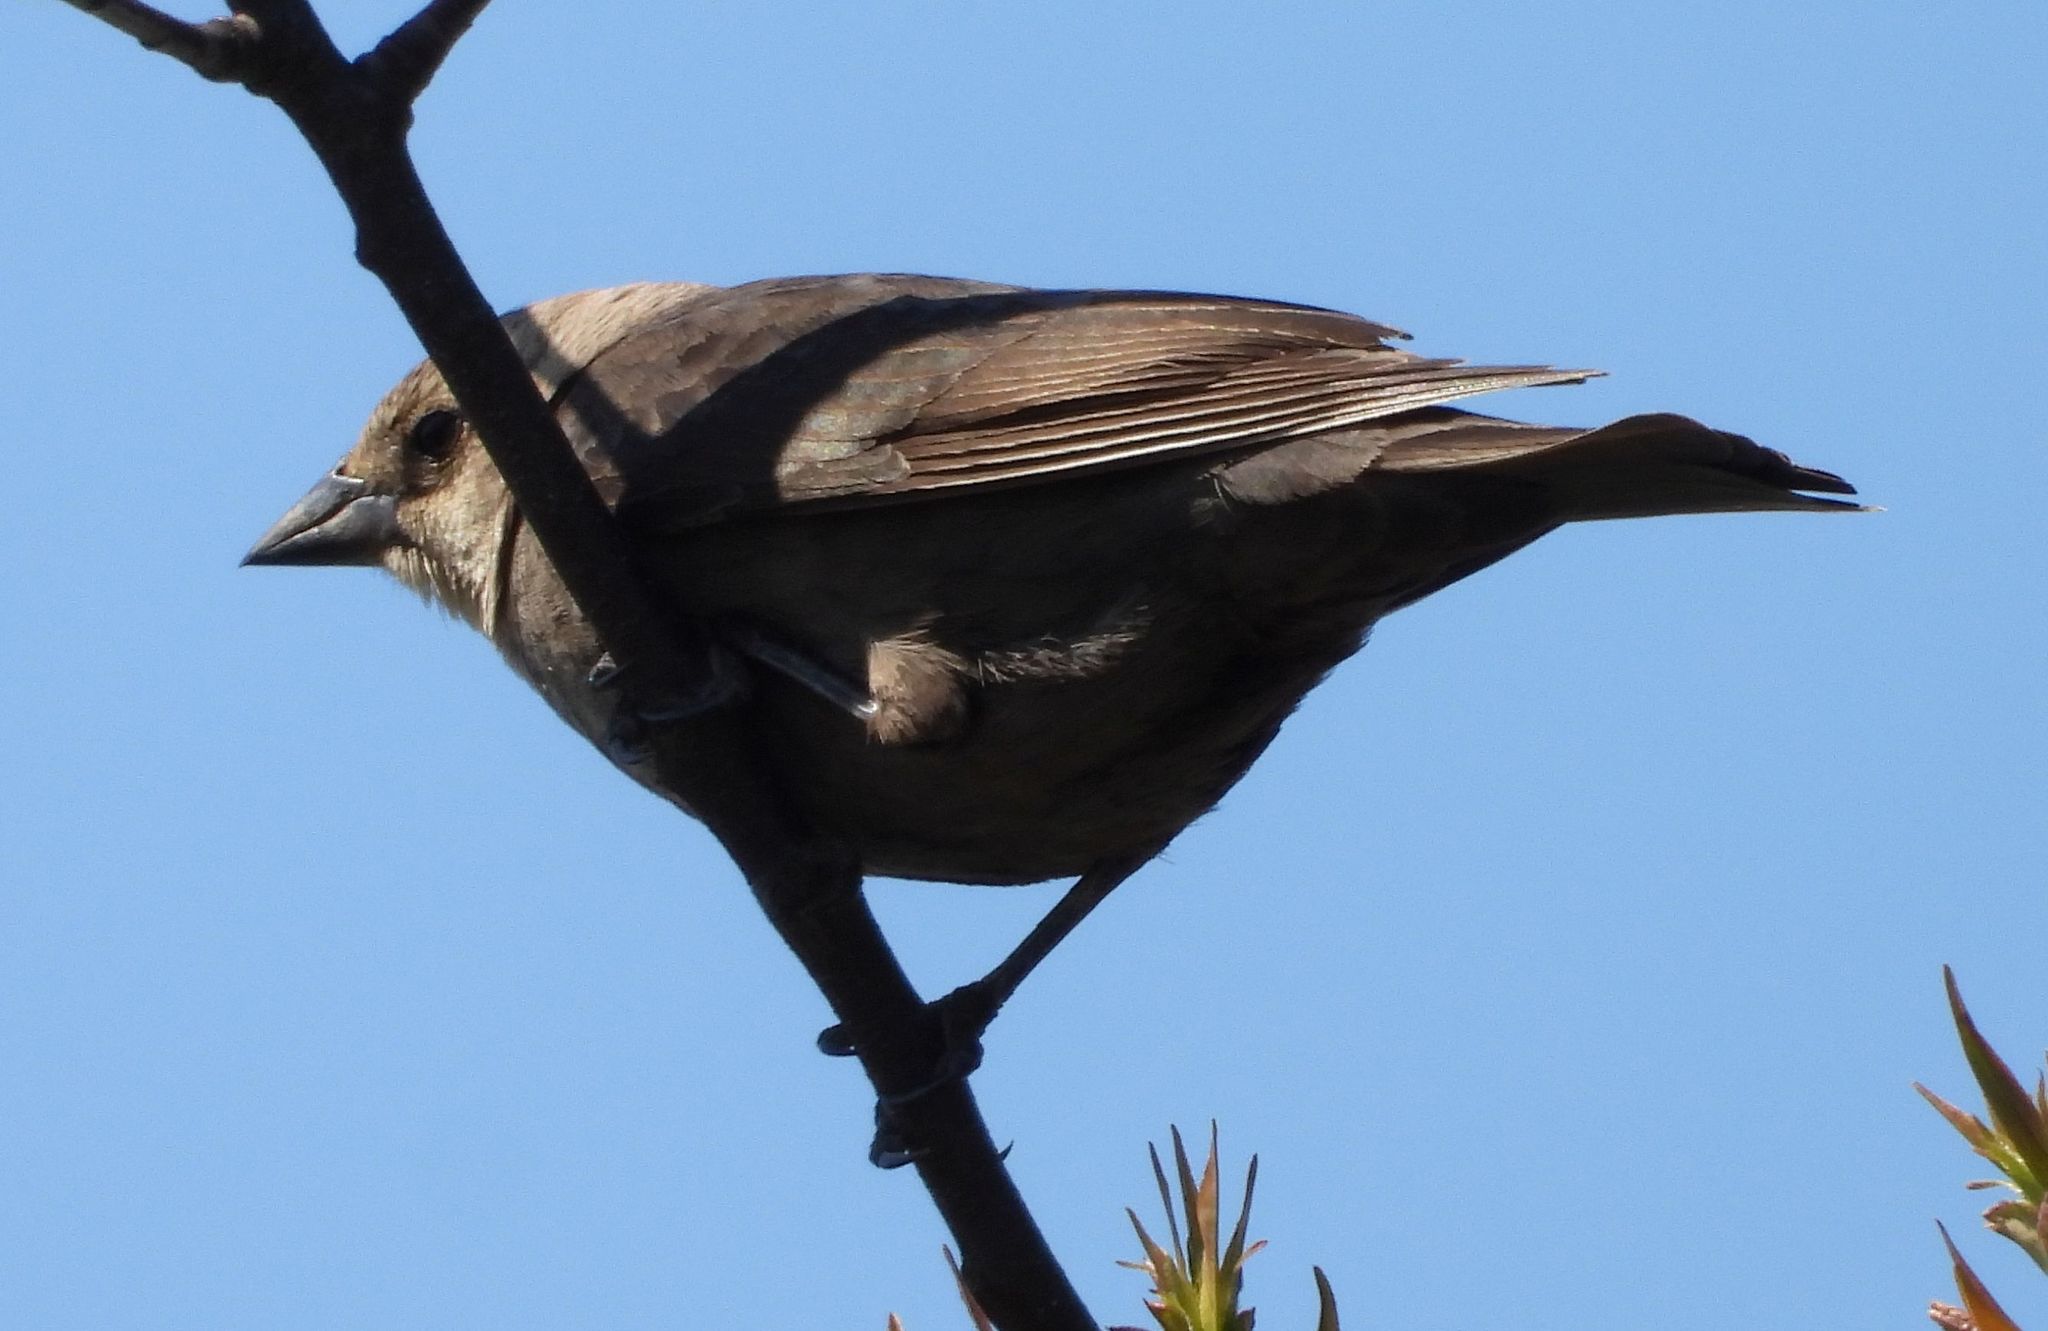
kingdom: Animalia
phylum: Chordata
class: Aves
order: Passeriformes
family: Icteridae
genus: Molothrus
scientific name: Molothrus ater
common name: Brown-headed cowbird
